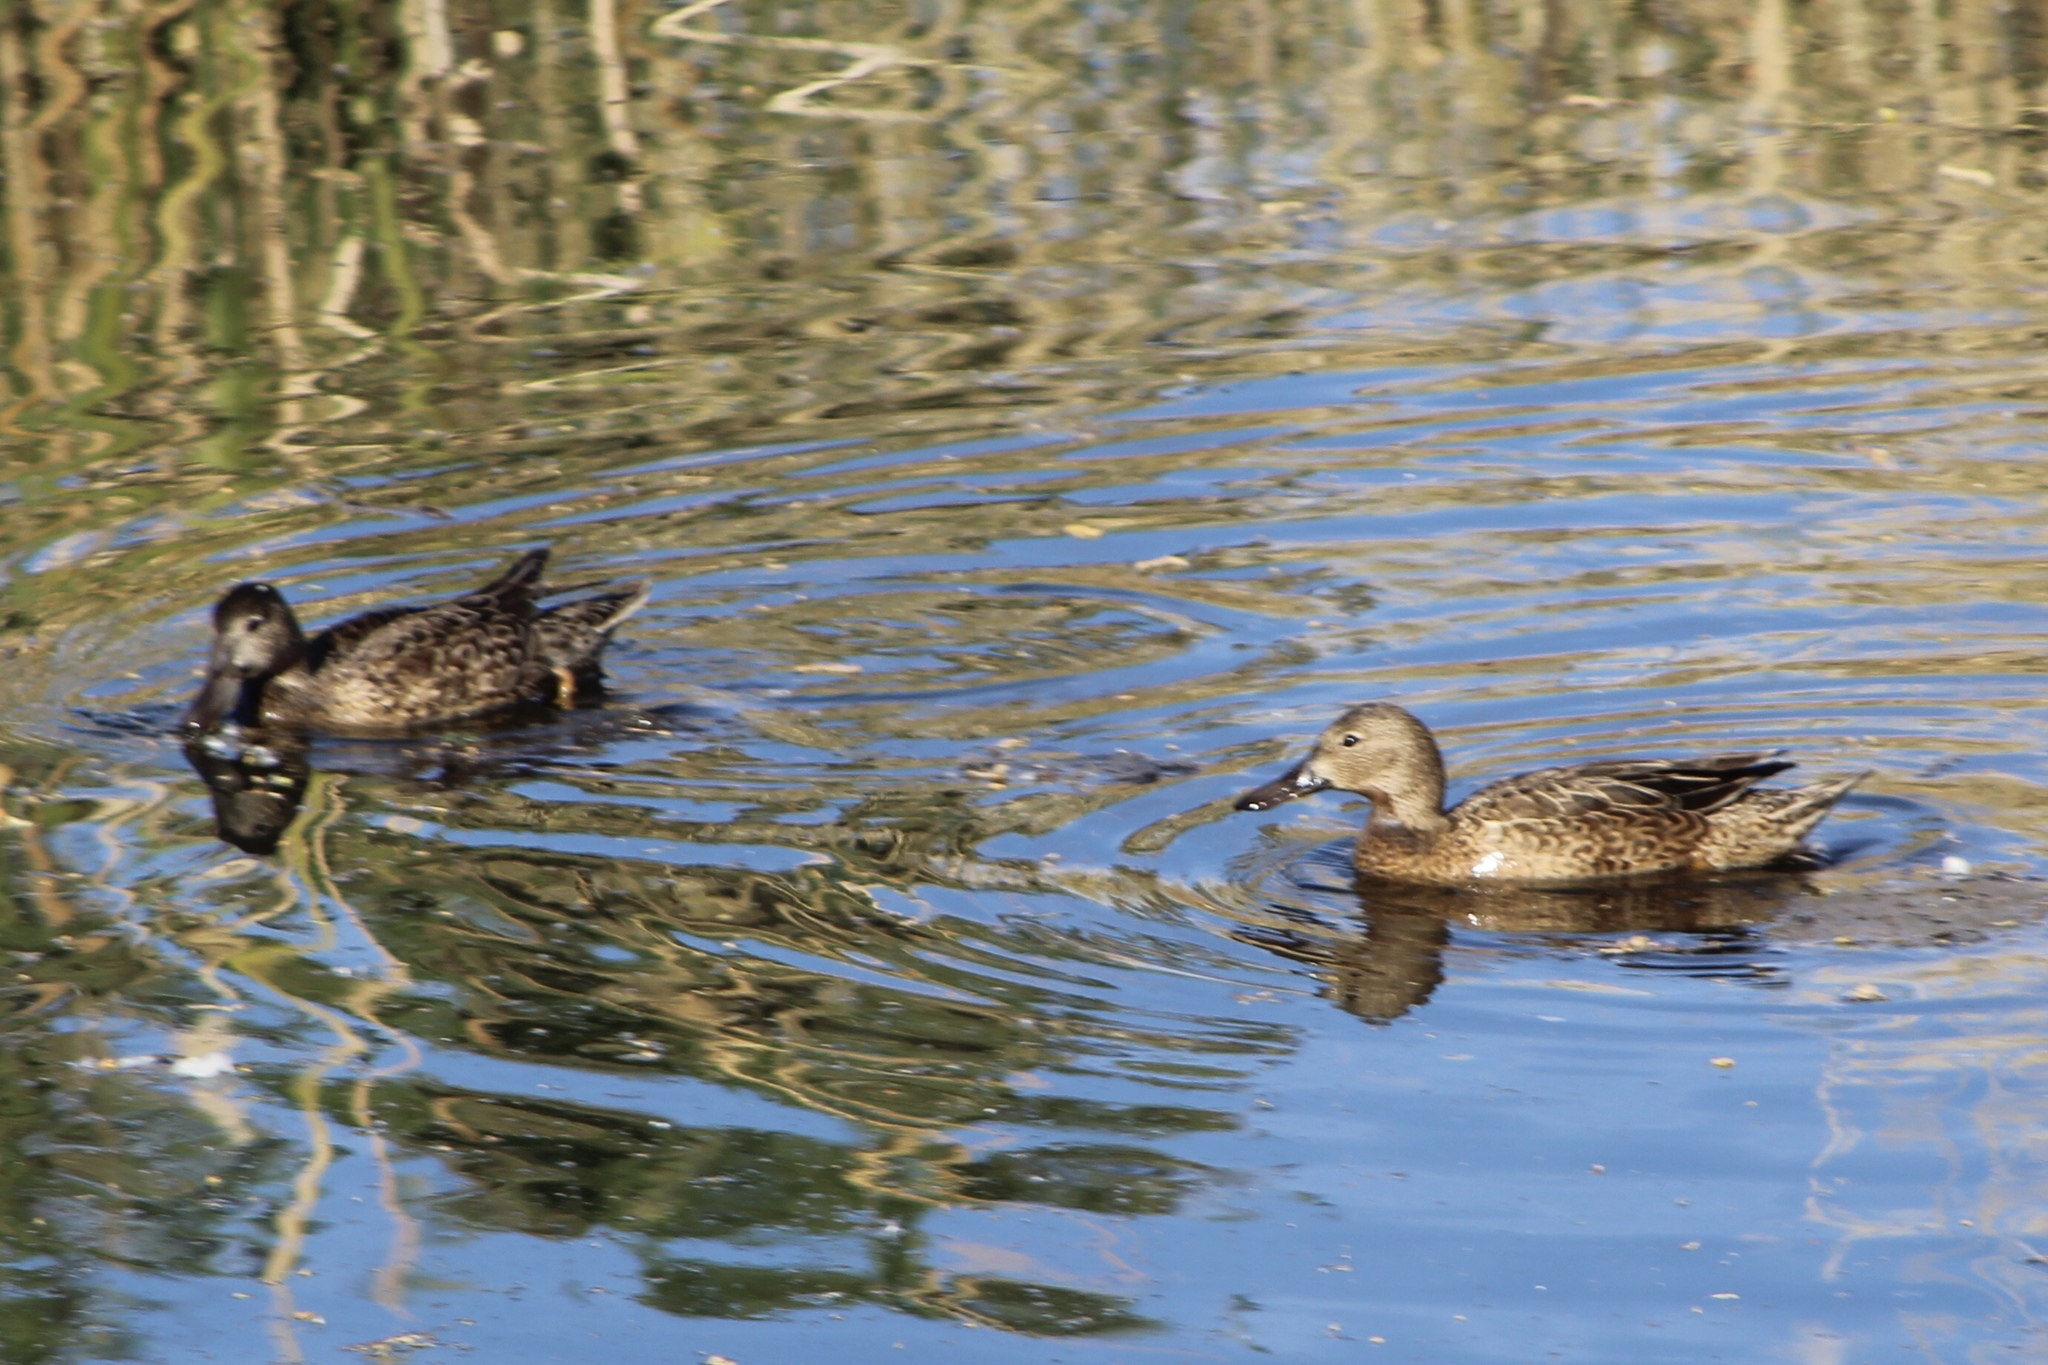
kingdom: Animalia
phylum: Chordata
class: Aves
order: Anseriformes
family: Anatidae
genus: Spatula
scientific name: Spatula cyanoptera
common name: Cinnamon teal
